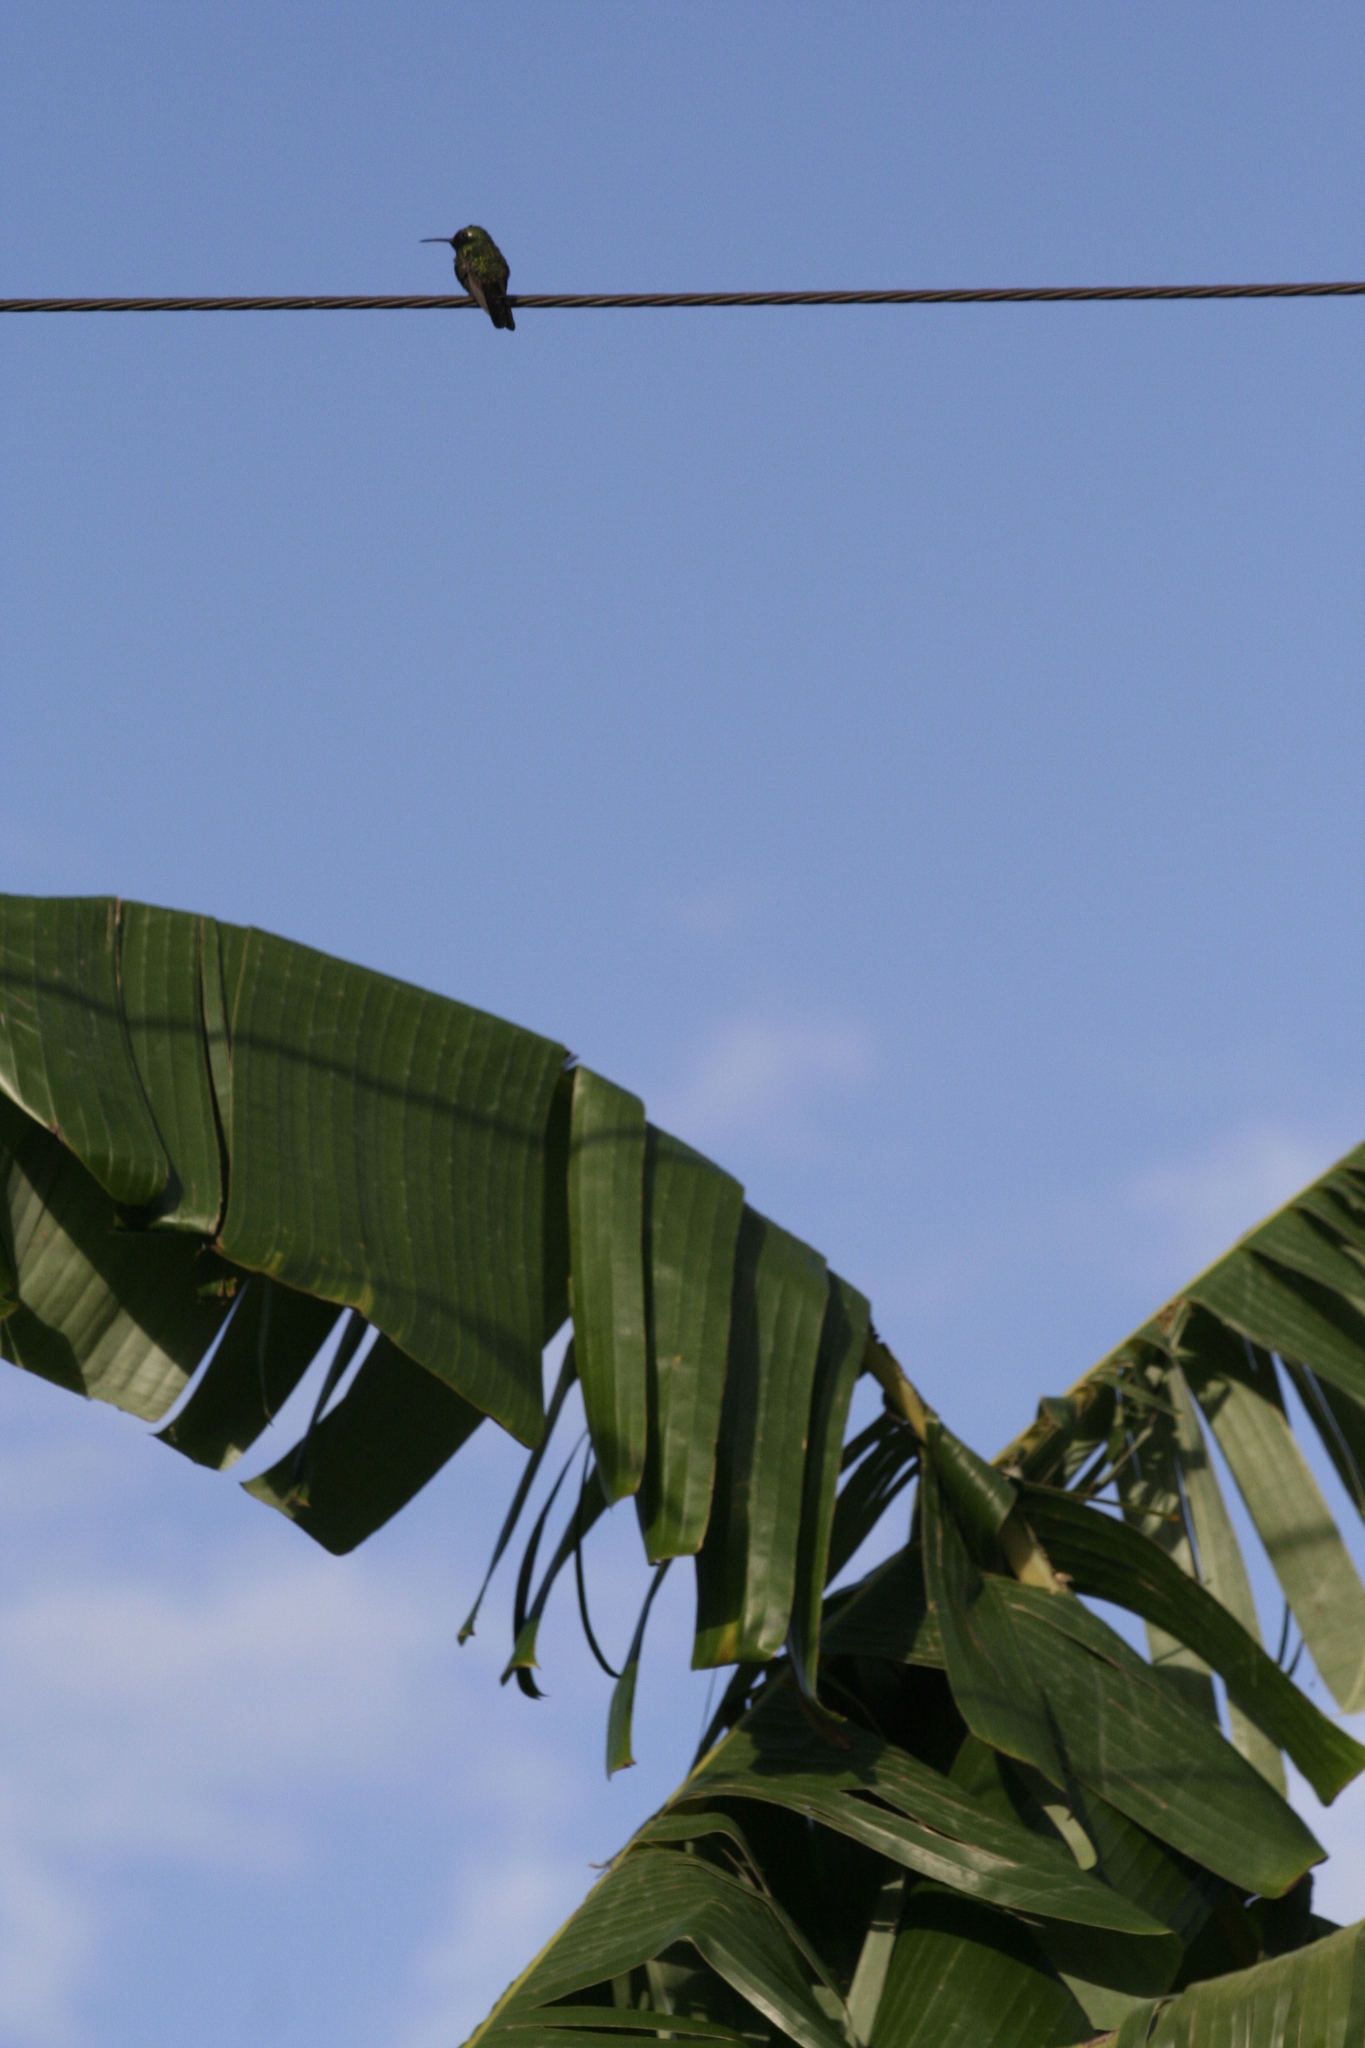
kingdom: Animalia
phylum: Chordata
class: Aves
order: Apodiformes
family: Trochilidae
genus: Riccordia
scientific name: Riccordia ricordii
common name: Cuban emerald
